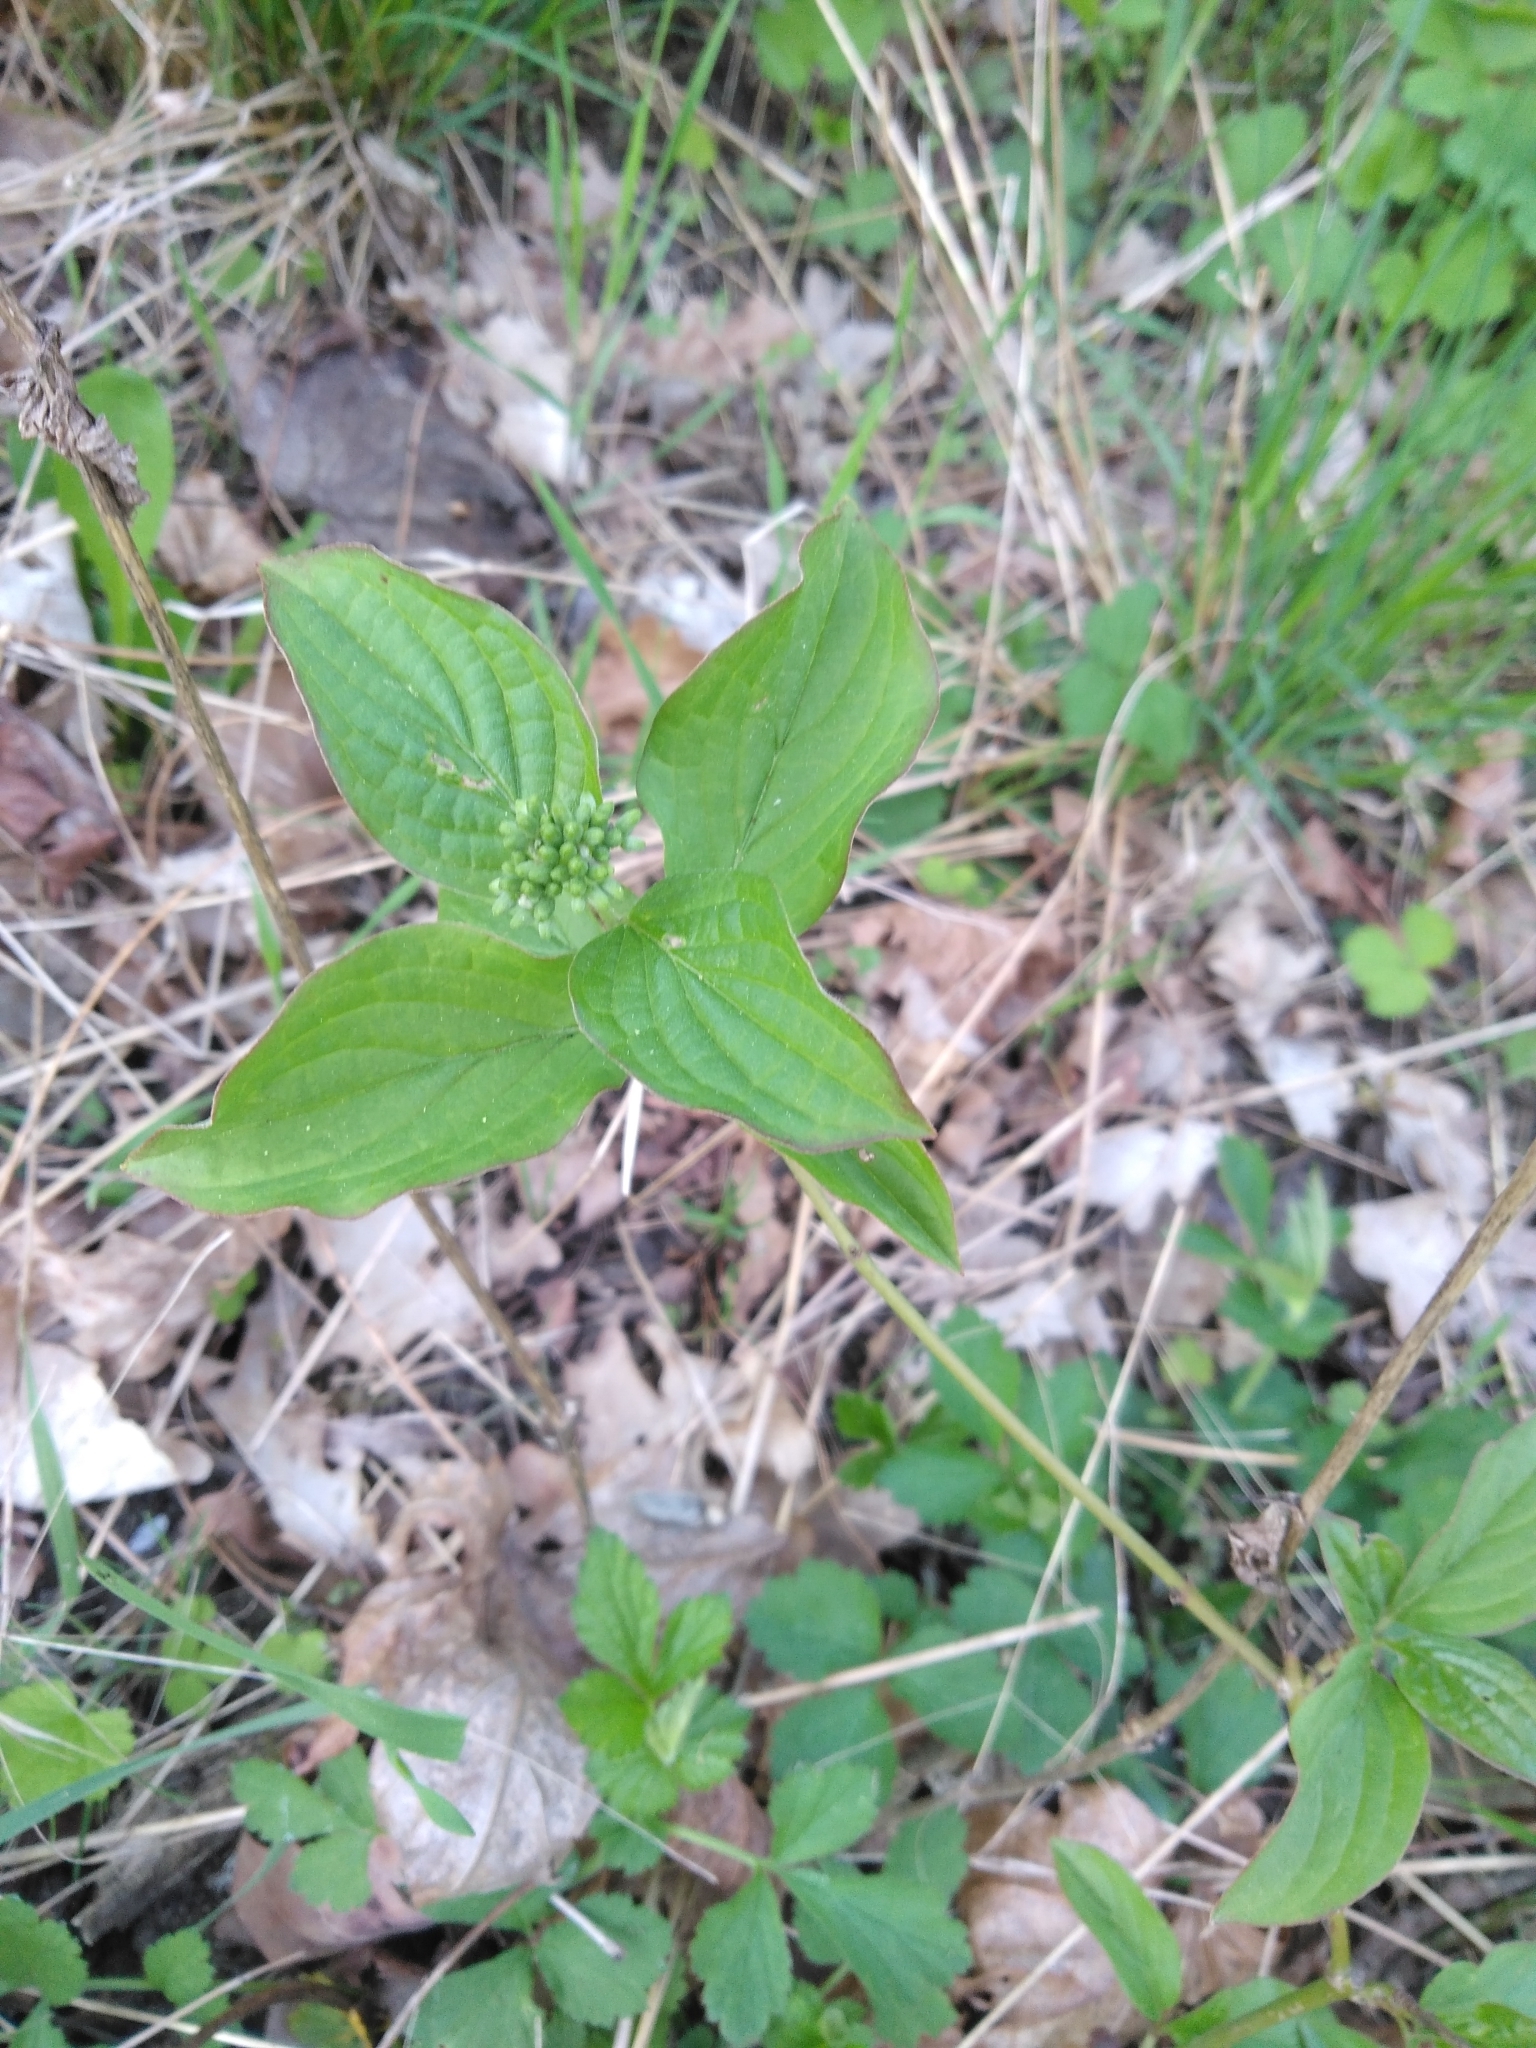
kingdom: Plantae
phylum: Tracheophyta
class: Magnoliopsida
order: Cornales
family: Cornaceae
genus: Cornus
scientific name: Cornus sanguinea
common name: Dogwood
